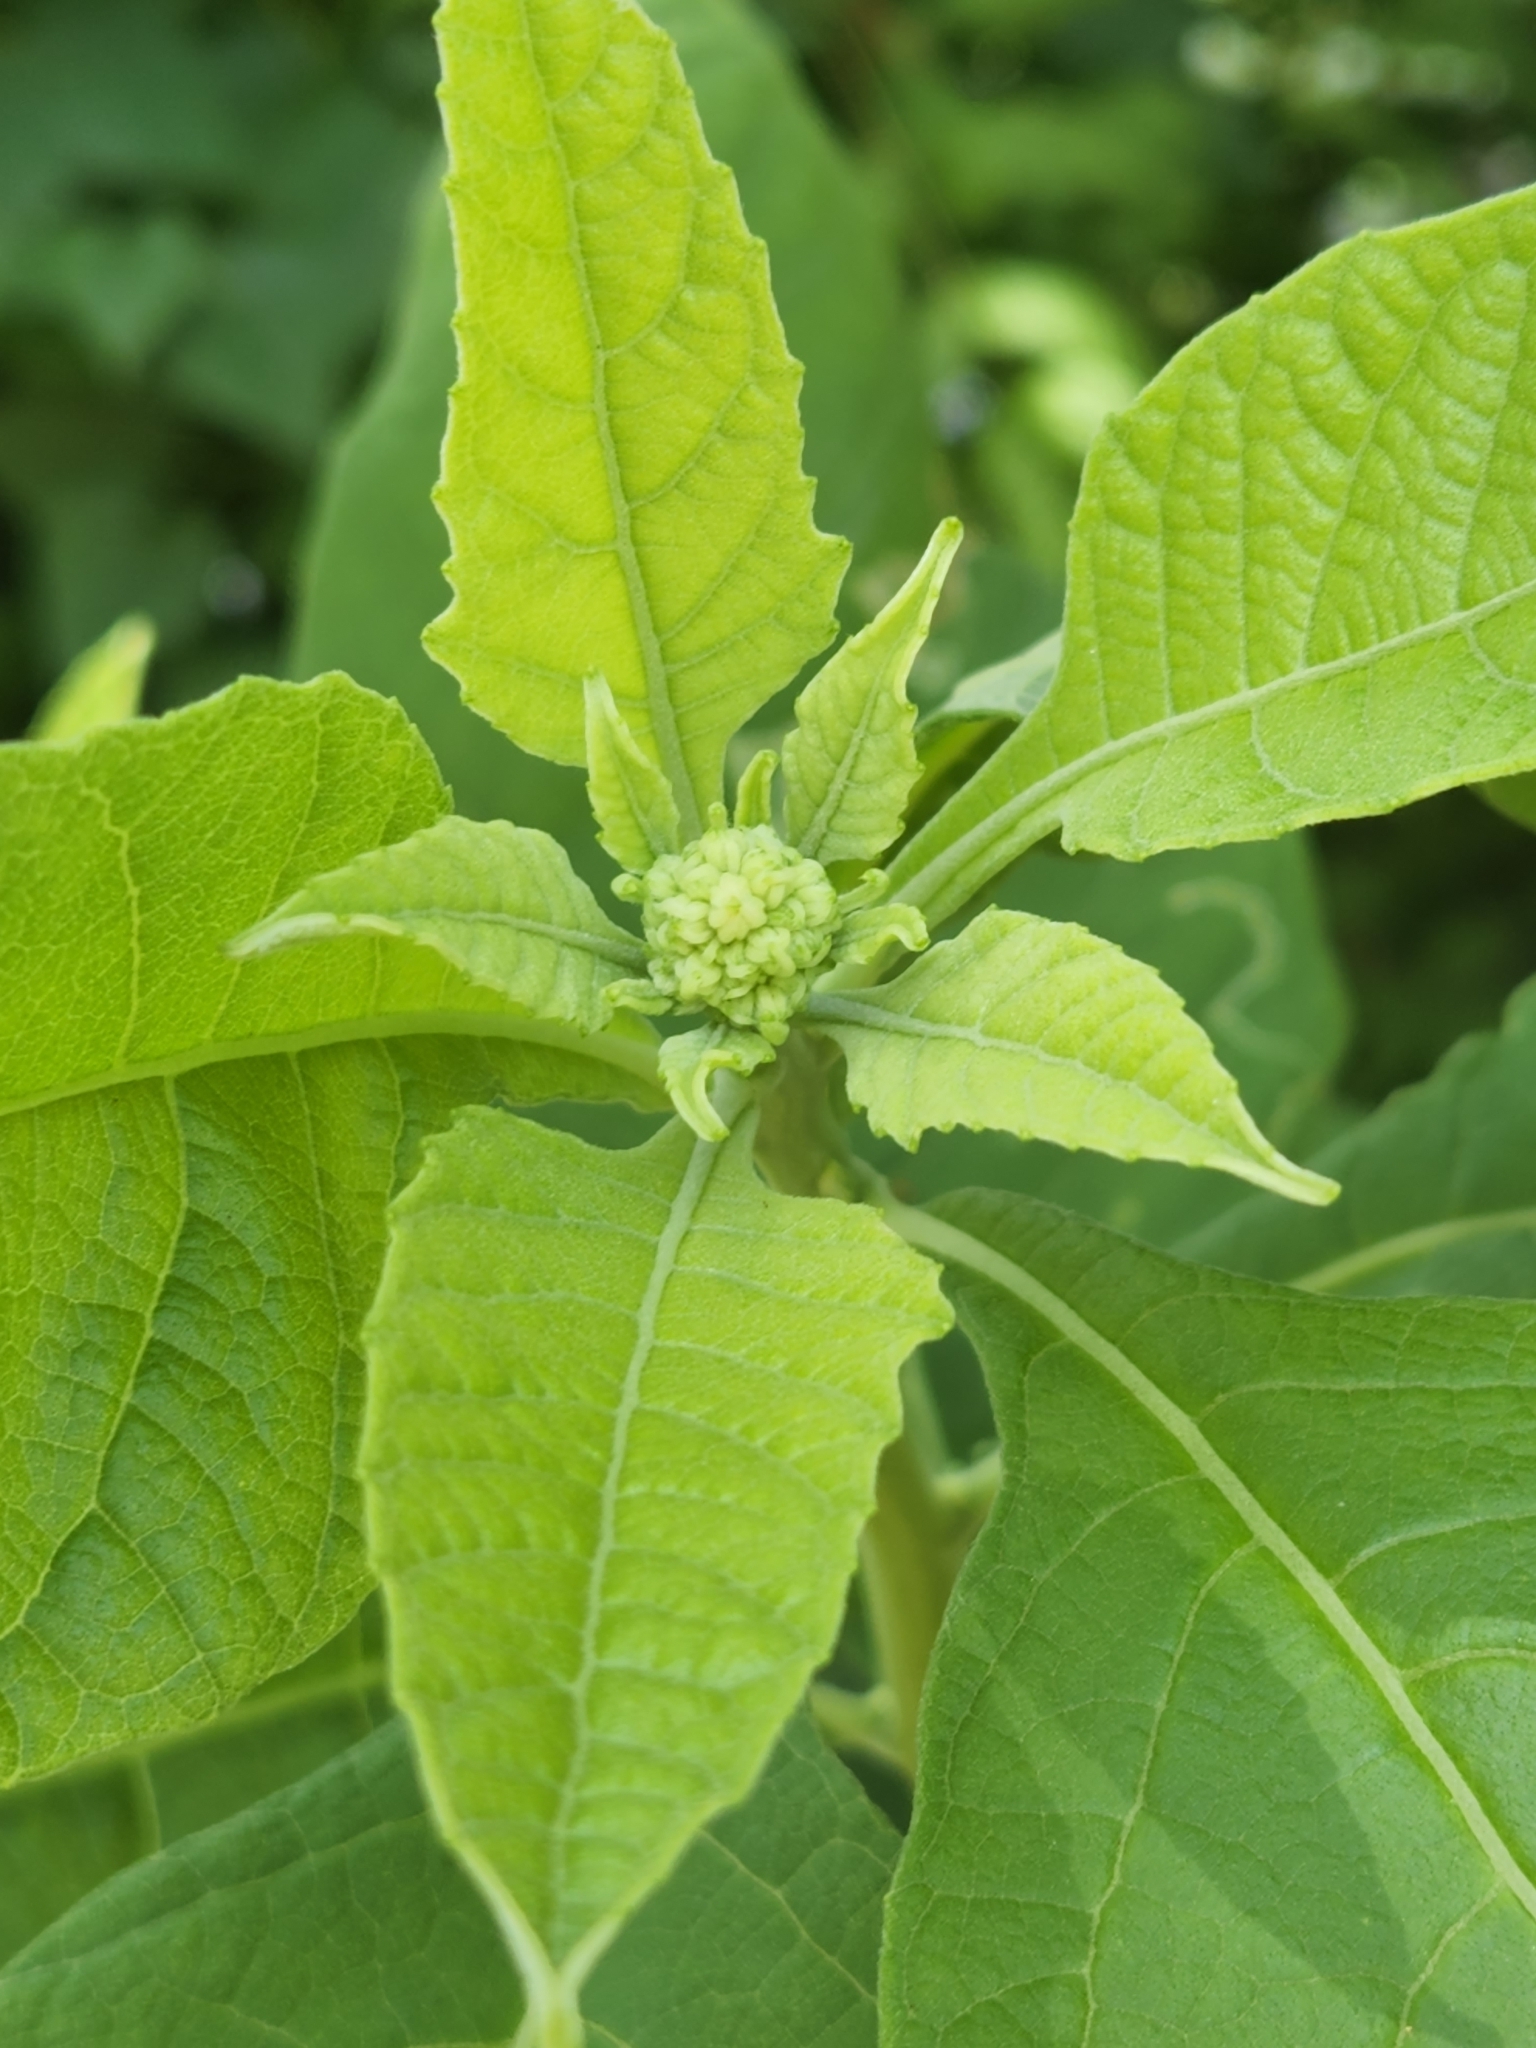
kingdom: Plantae
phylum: Tracheophyta
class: Magnoliopsida
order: Asterales
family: Asteraceae
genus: Verbesina
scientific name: Verbesina virginica
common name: Frostweed
